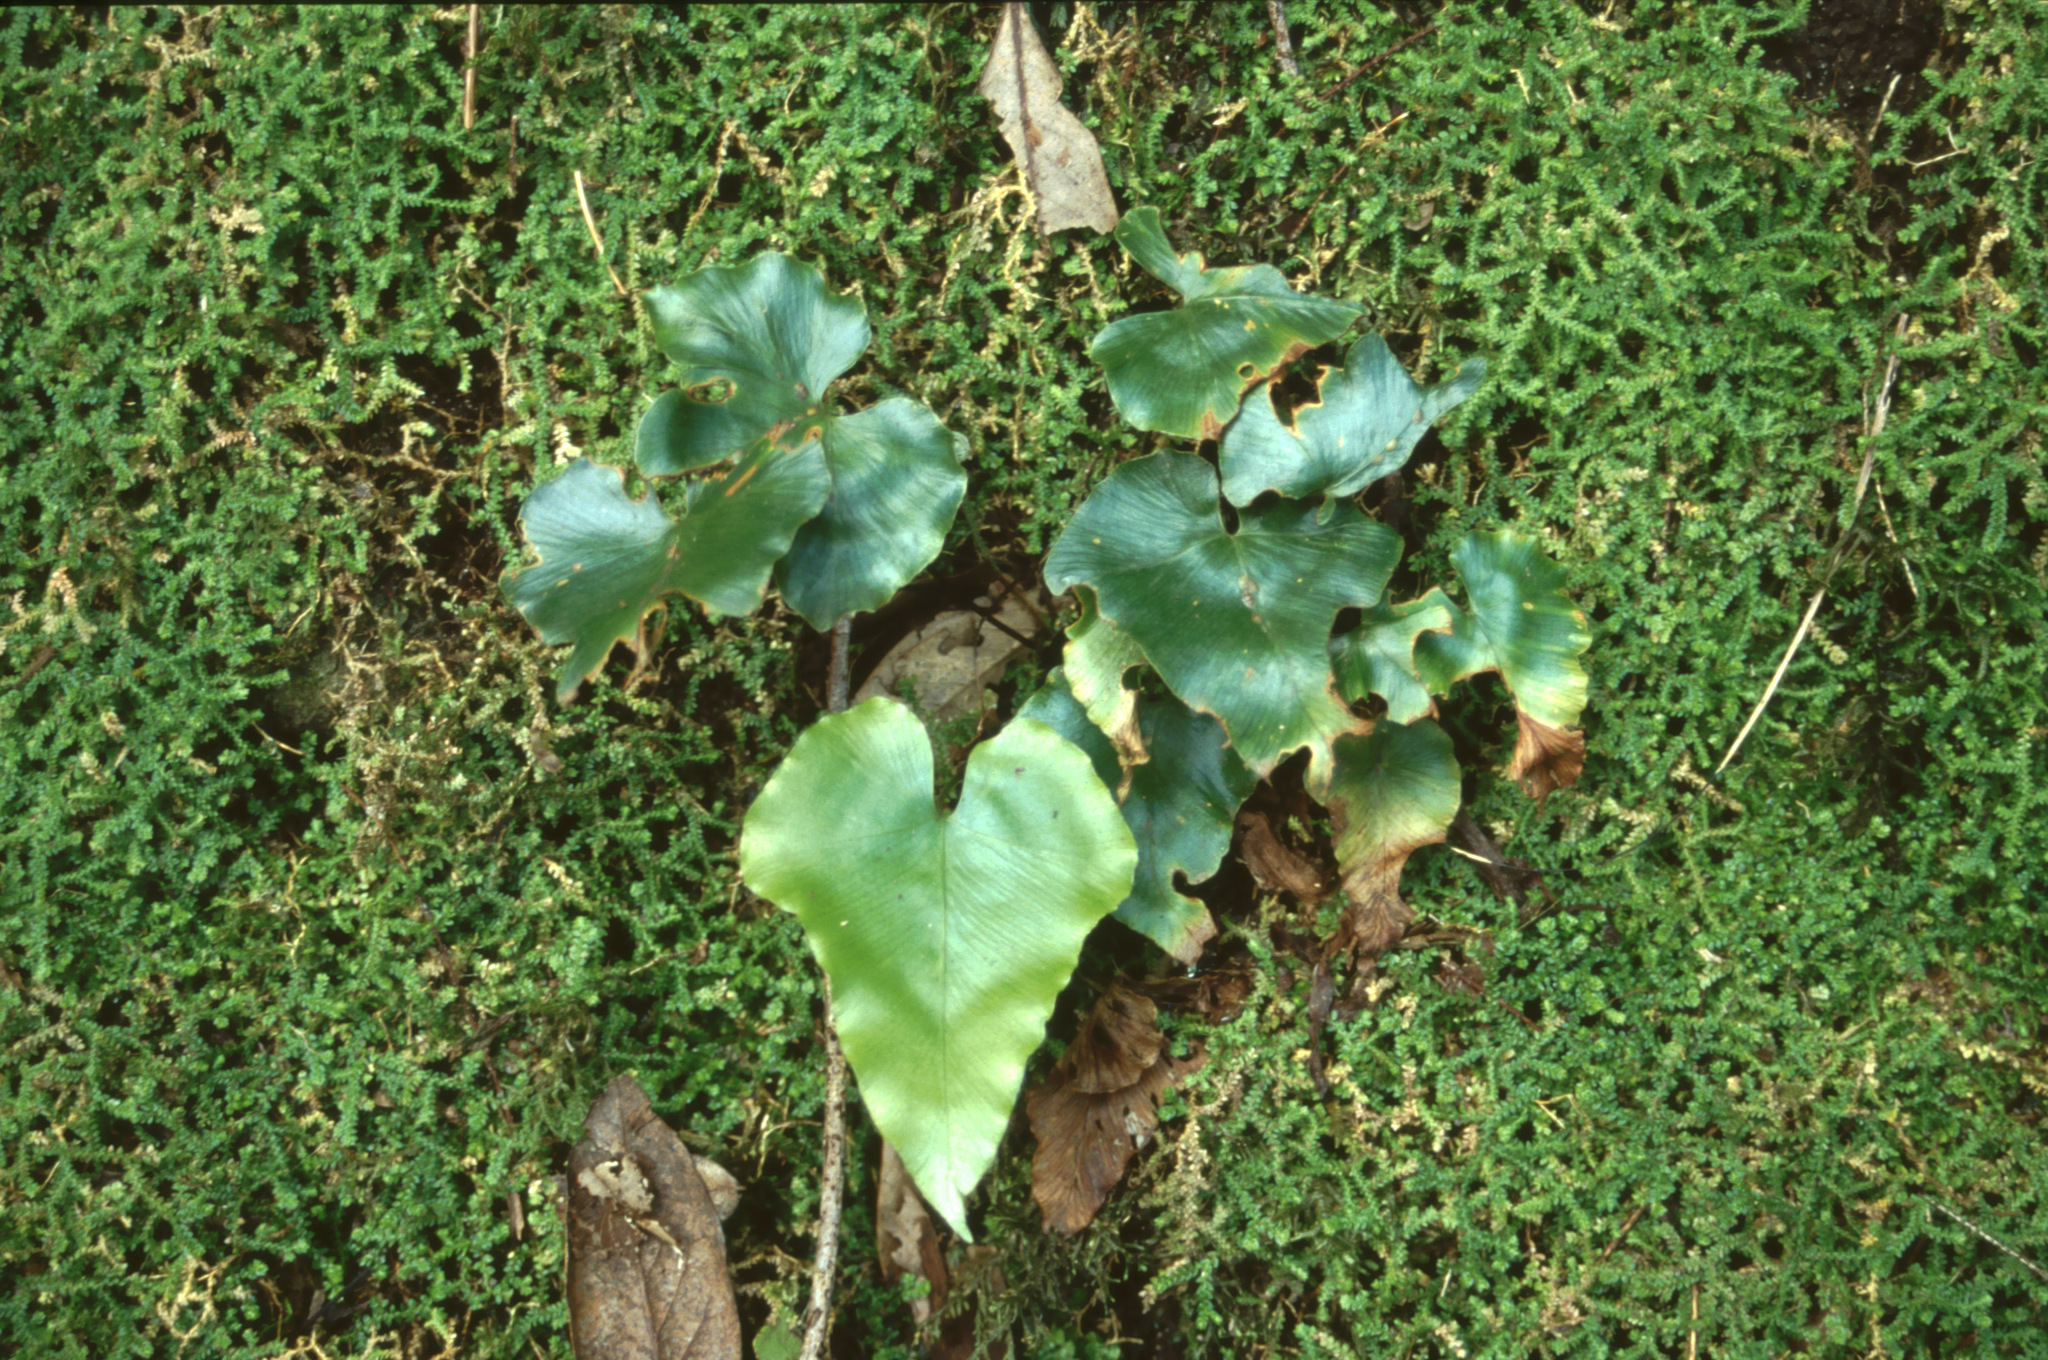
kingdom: Plantae
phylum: Tracheophyta
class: Polypodiopsida
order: Polypodiales
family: Aspleniaceae
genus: Asplenium
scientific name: Asplenium hemionitis
